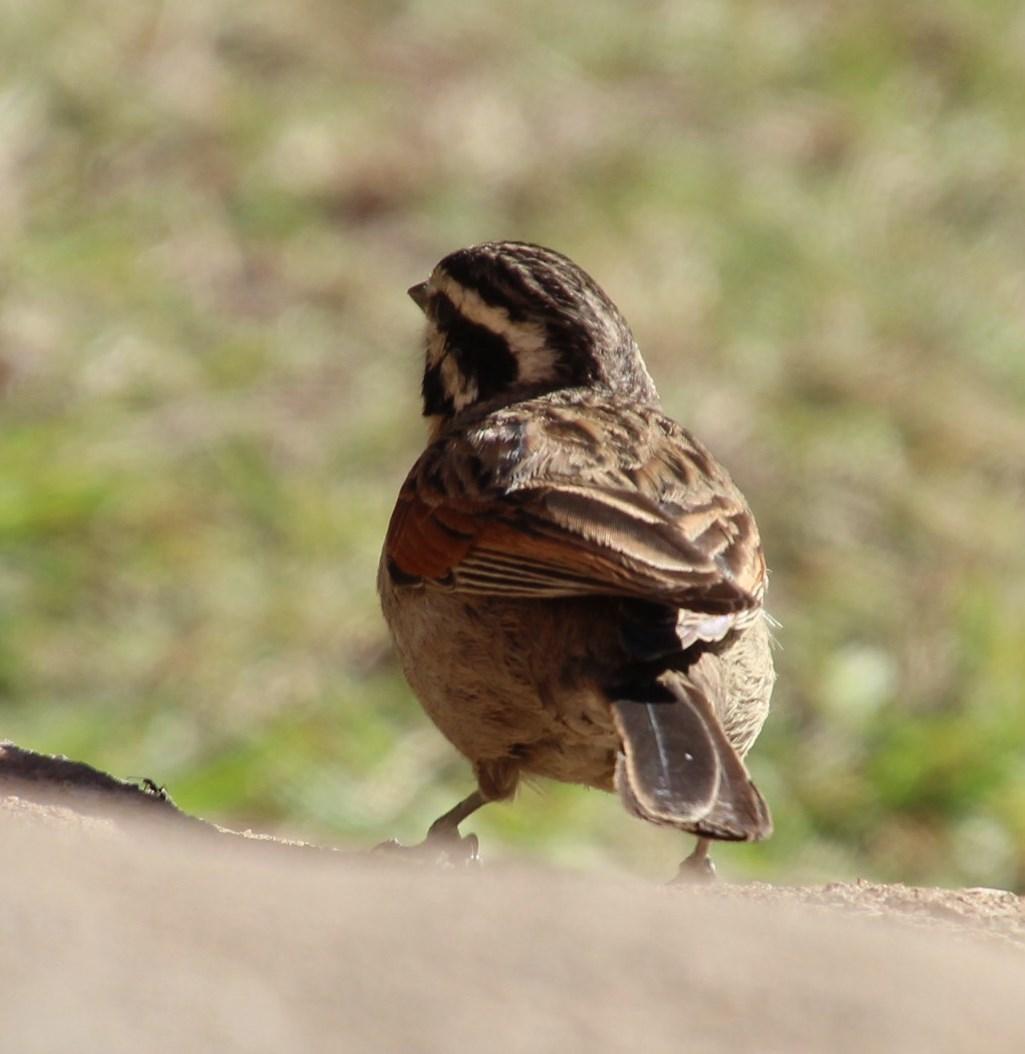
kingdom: Animalia
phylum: Chordata
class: Aves
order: Passeriformes
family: Emberizidae
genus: Emberiza
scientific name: Emberiza capensis
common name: Cape bunting
